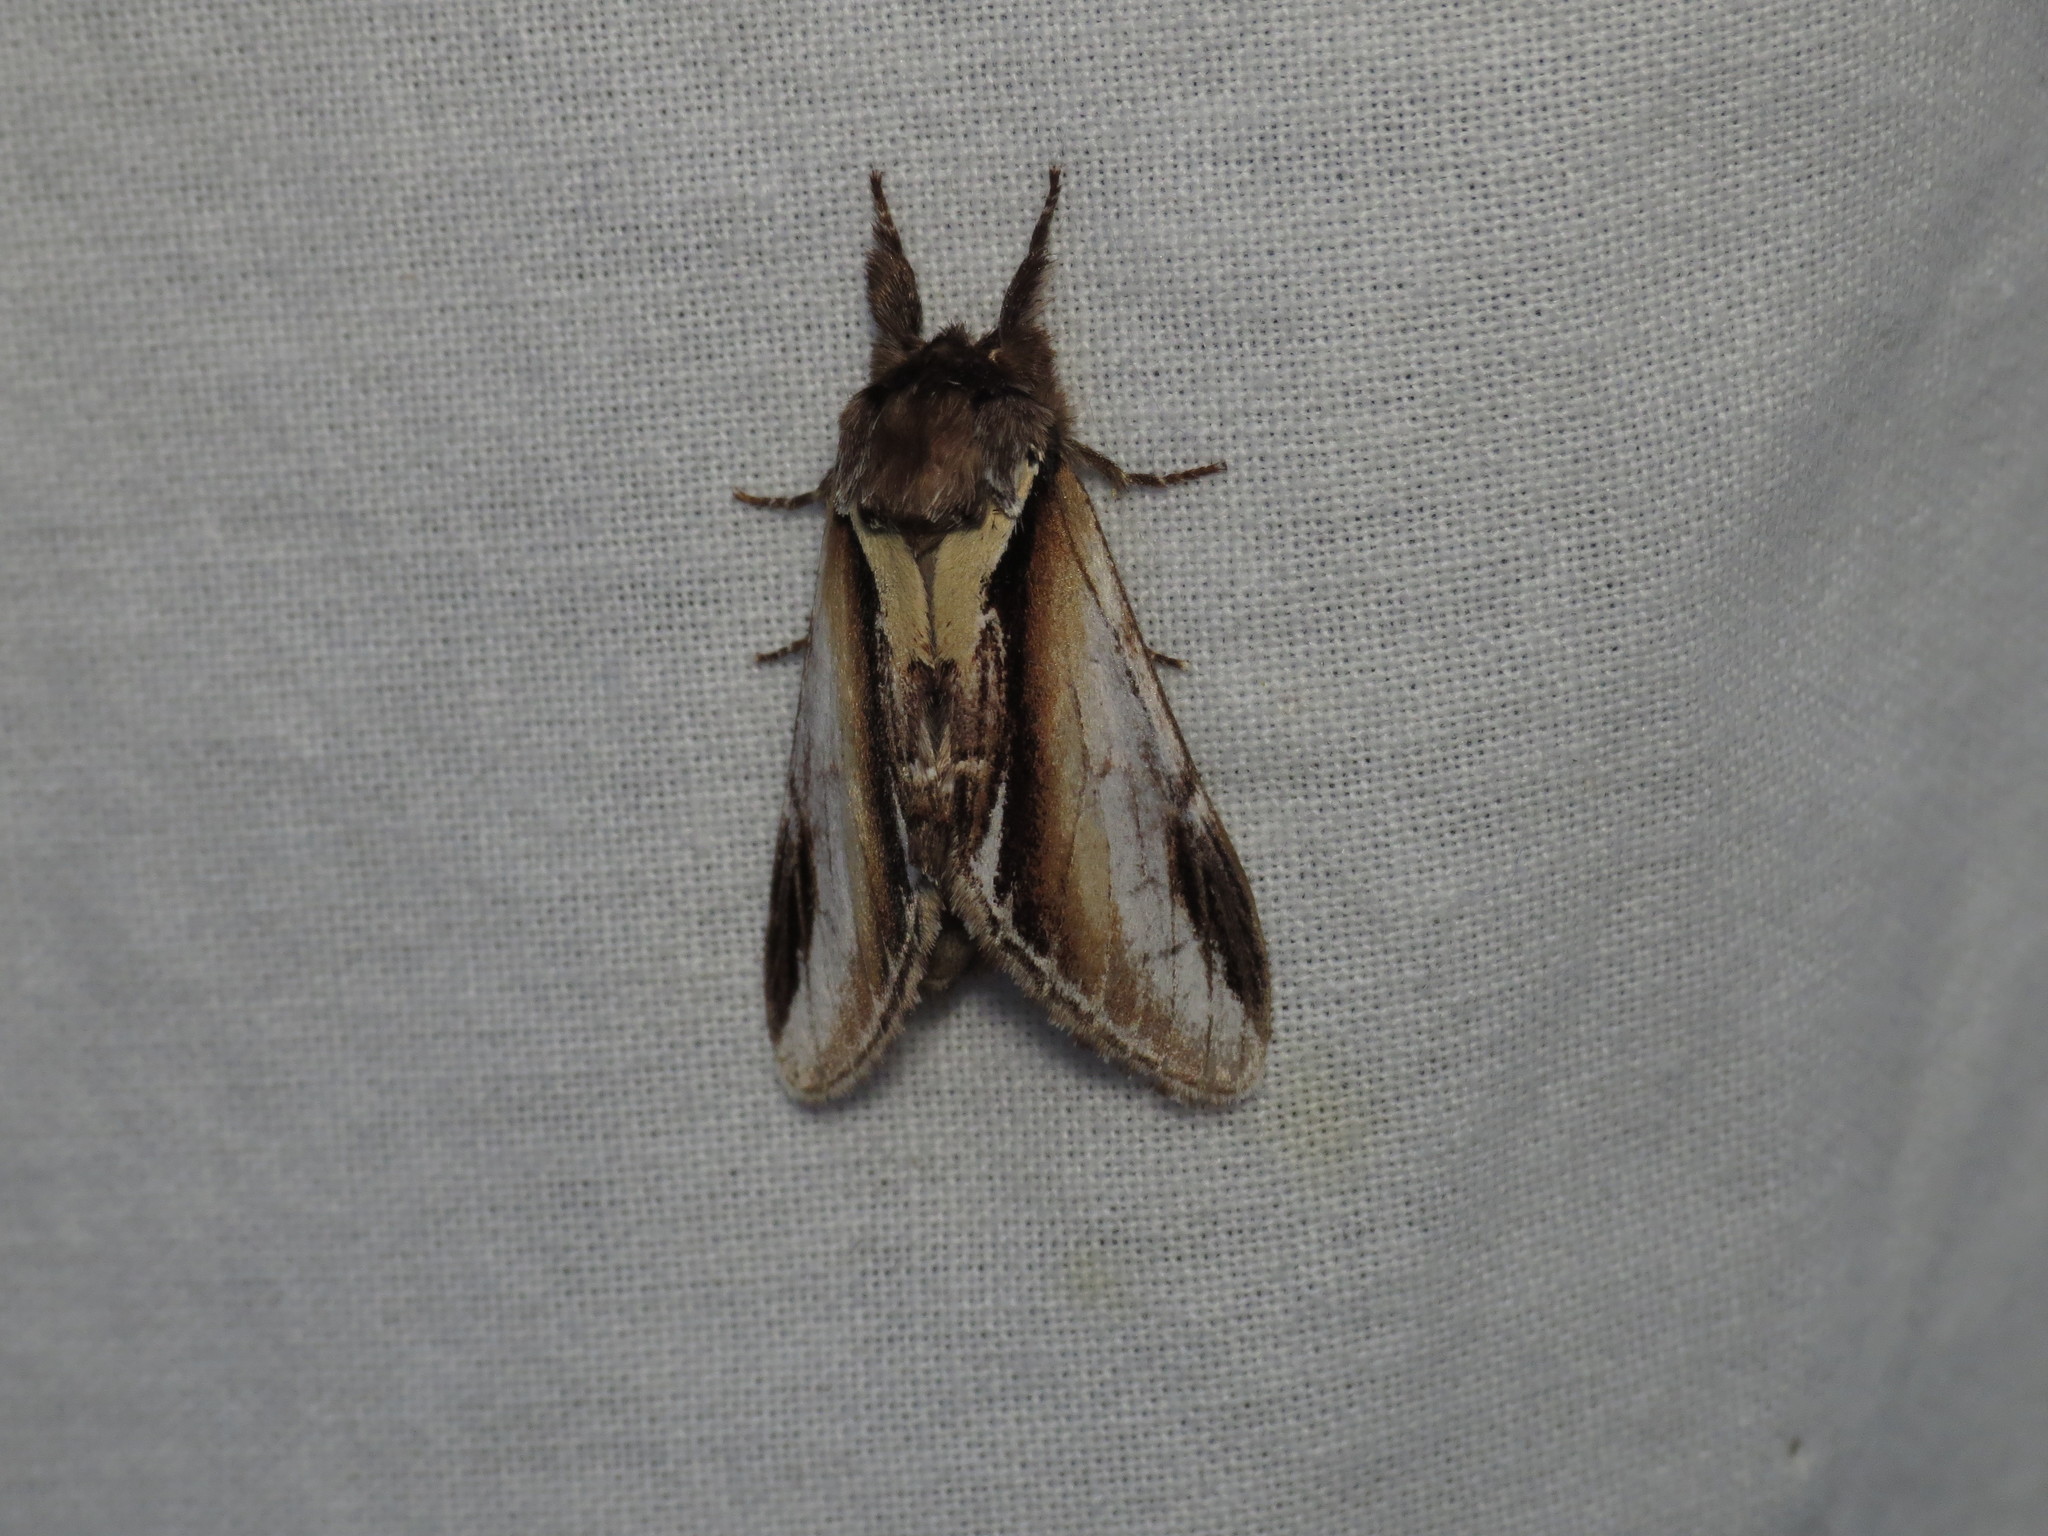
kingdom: Animalia
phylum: Arthropoda
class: Insecta
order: Lepidoptera
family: Notodontidae
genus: Pheosia
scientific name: Pheosia gnoma
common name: Lesser swallow prominent
